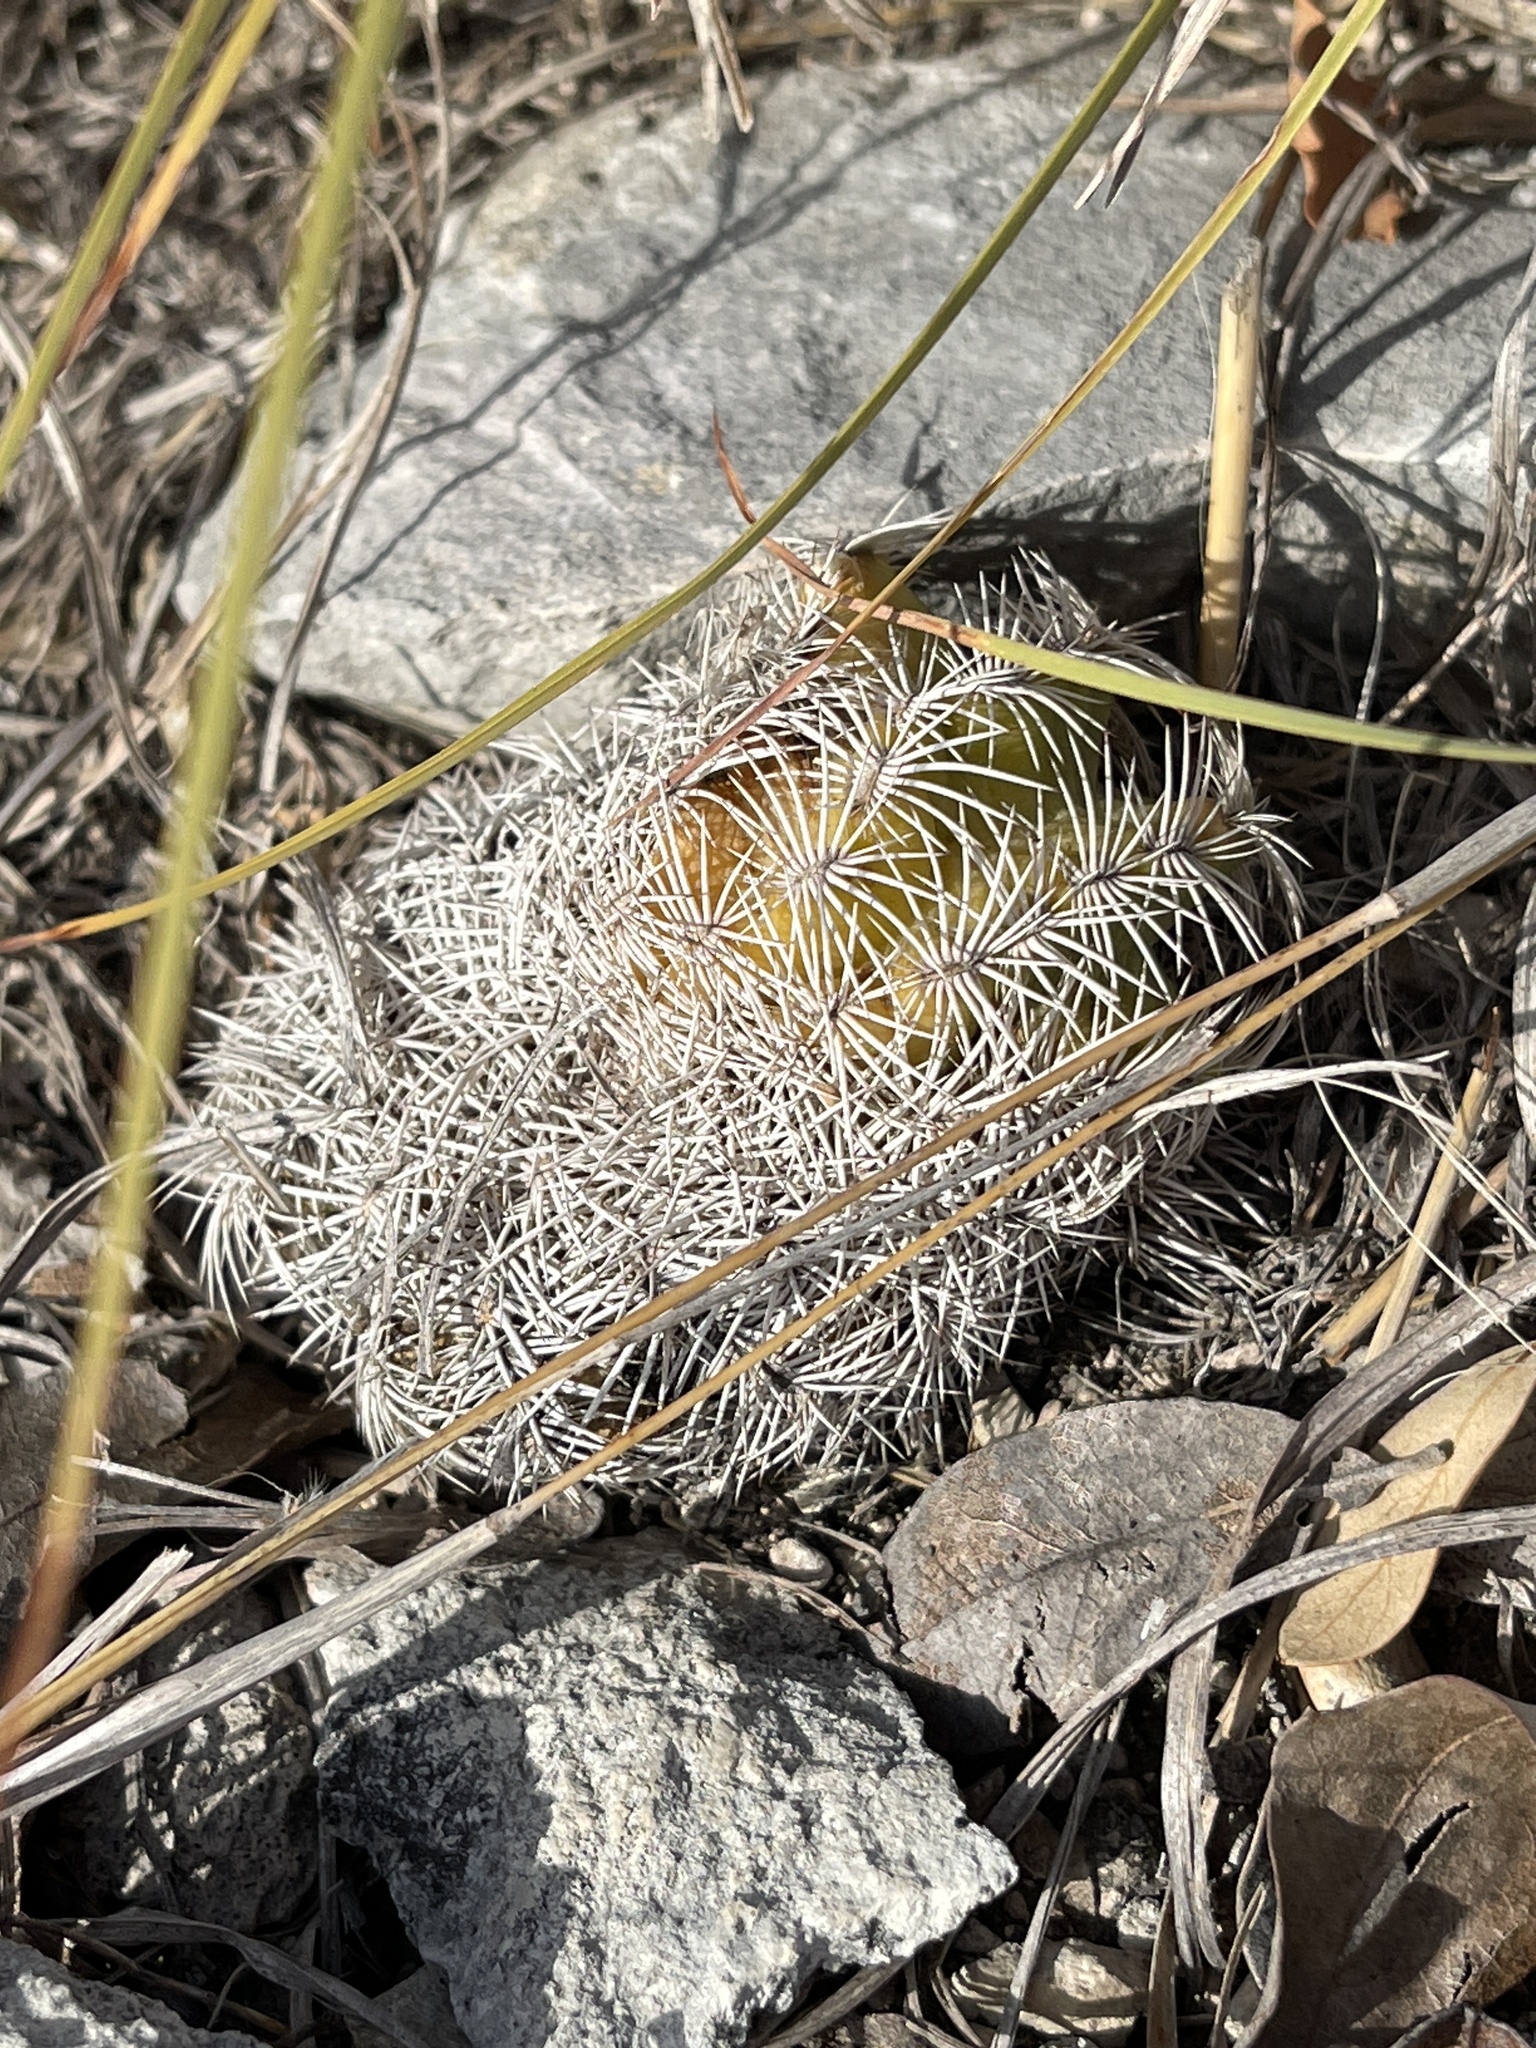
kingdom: Plantae
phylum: Tracheophyta
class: Magnoliopsida
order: Caryophyllales
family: Cactaceae
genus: Echinocereus
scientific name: Echinocereus reichenbachii
